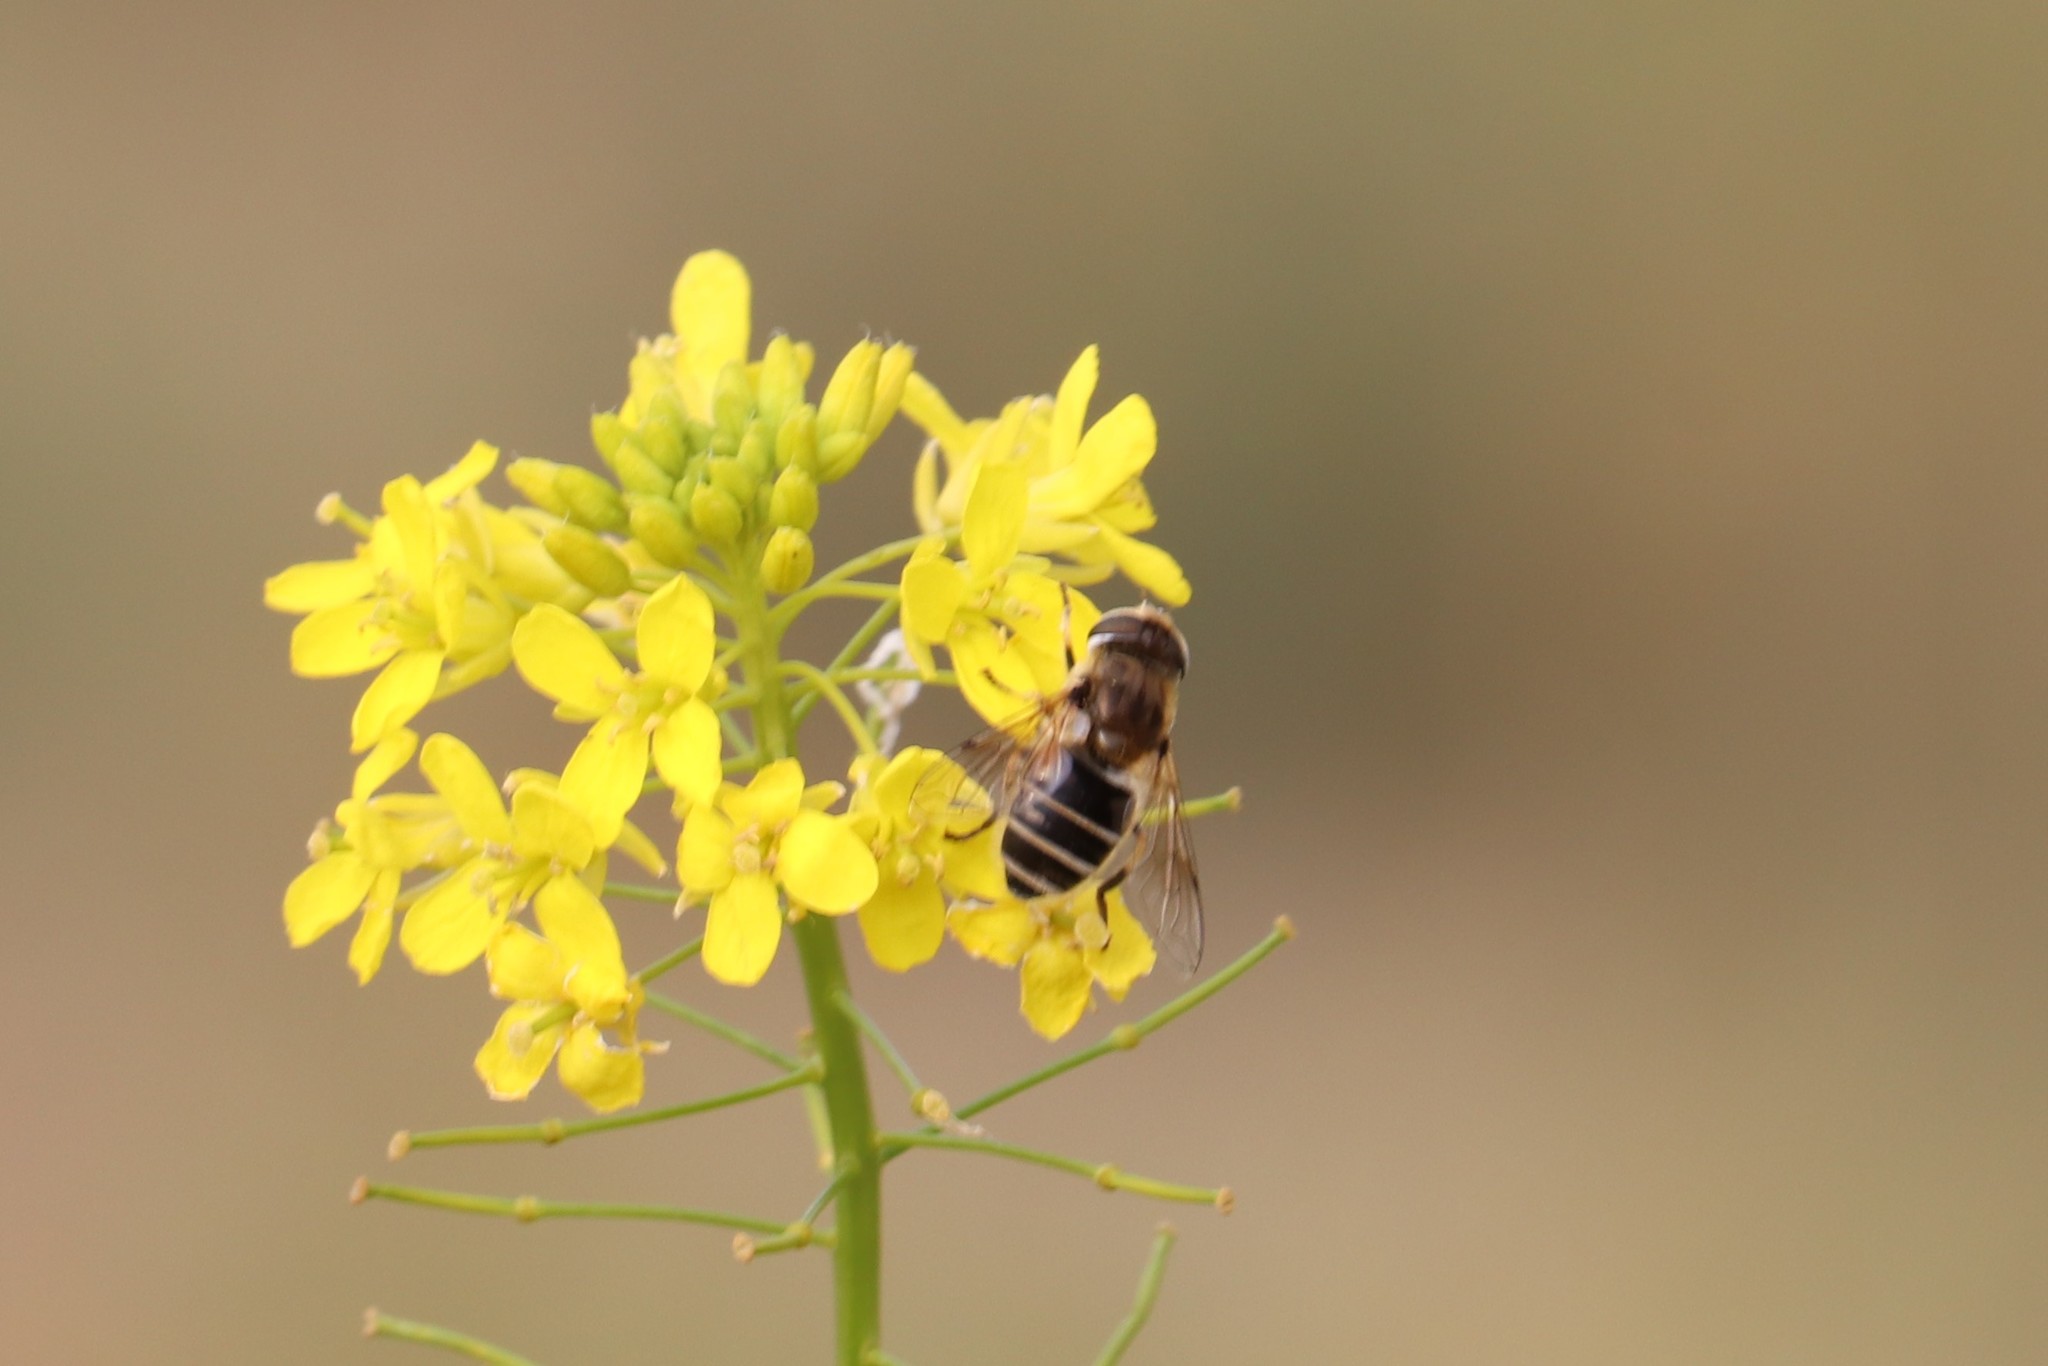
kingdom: Animalia
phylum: Arthropoda
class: Insecta
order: Diptera
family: Syrphidae
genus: Eristalis
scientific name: Eristalis arbustorum
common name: Hover fly
